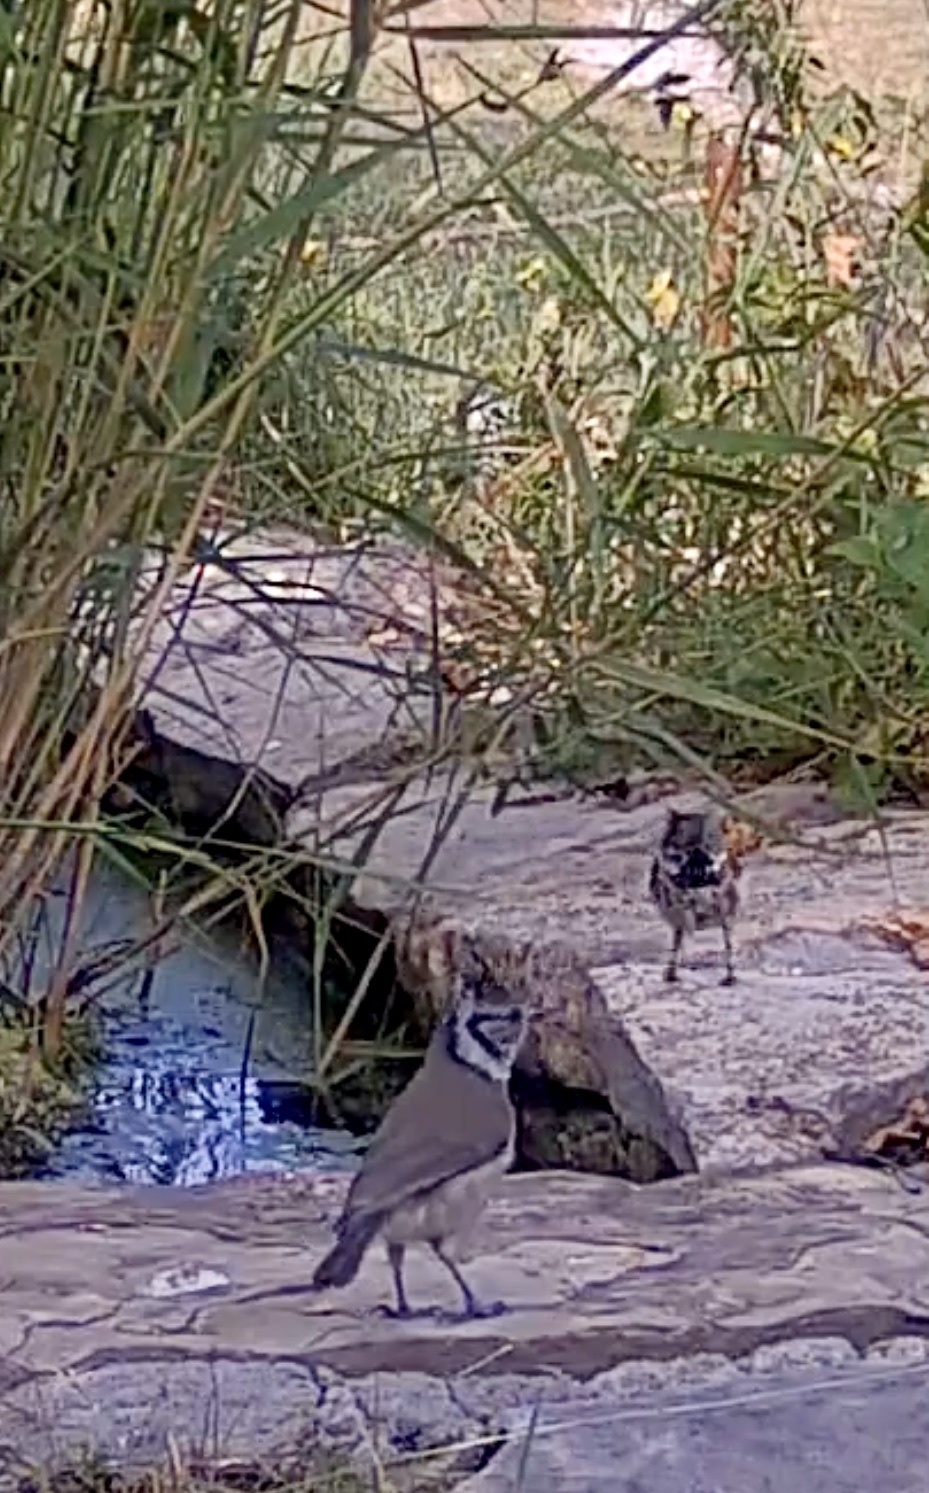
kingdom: Animalia
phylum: Chordata
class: Aves
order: Passeriformes
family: Paridae
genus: Lophophanes
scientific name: Lophophanes cristatus
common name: European crested tit
